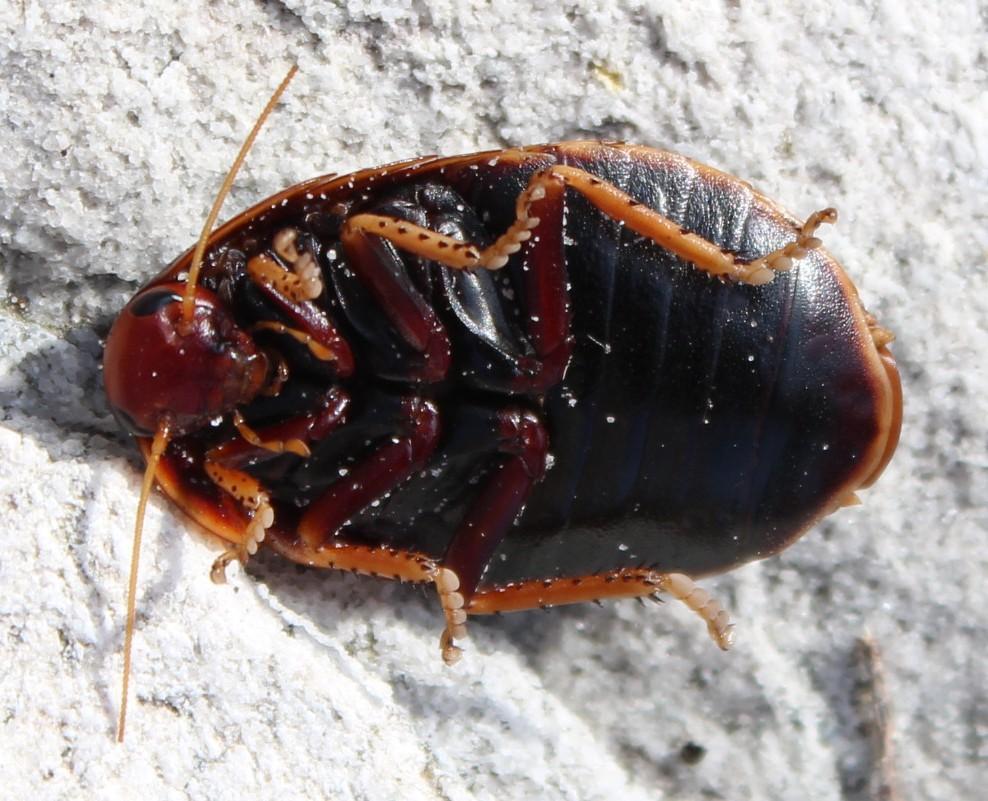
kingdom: Animalia
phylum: Arthropoda
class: Insecta
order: Blattodea
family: Blaberidae
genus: Aptera
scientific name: Aptera fusca
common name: Cape mountain cockroach
